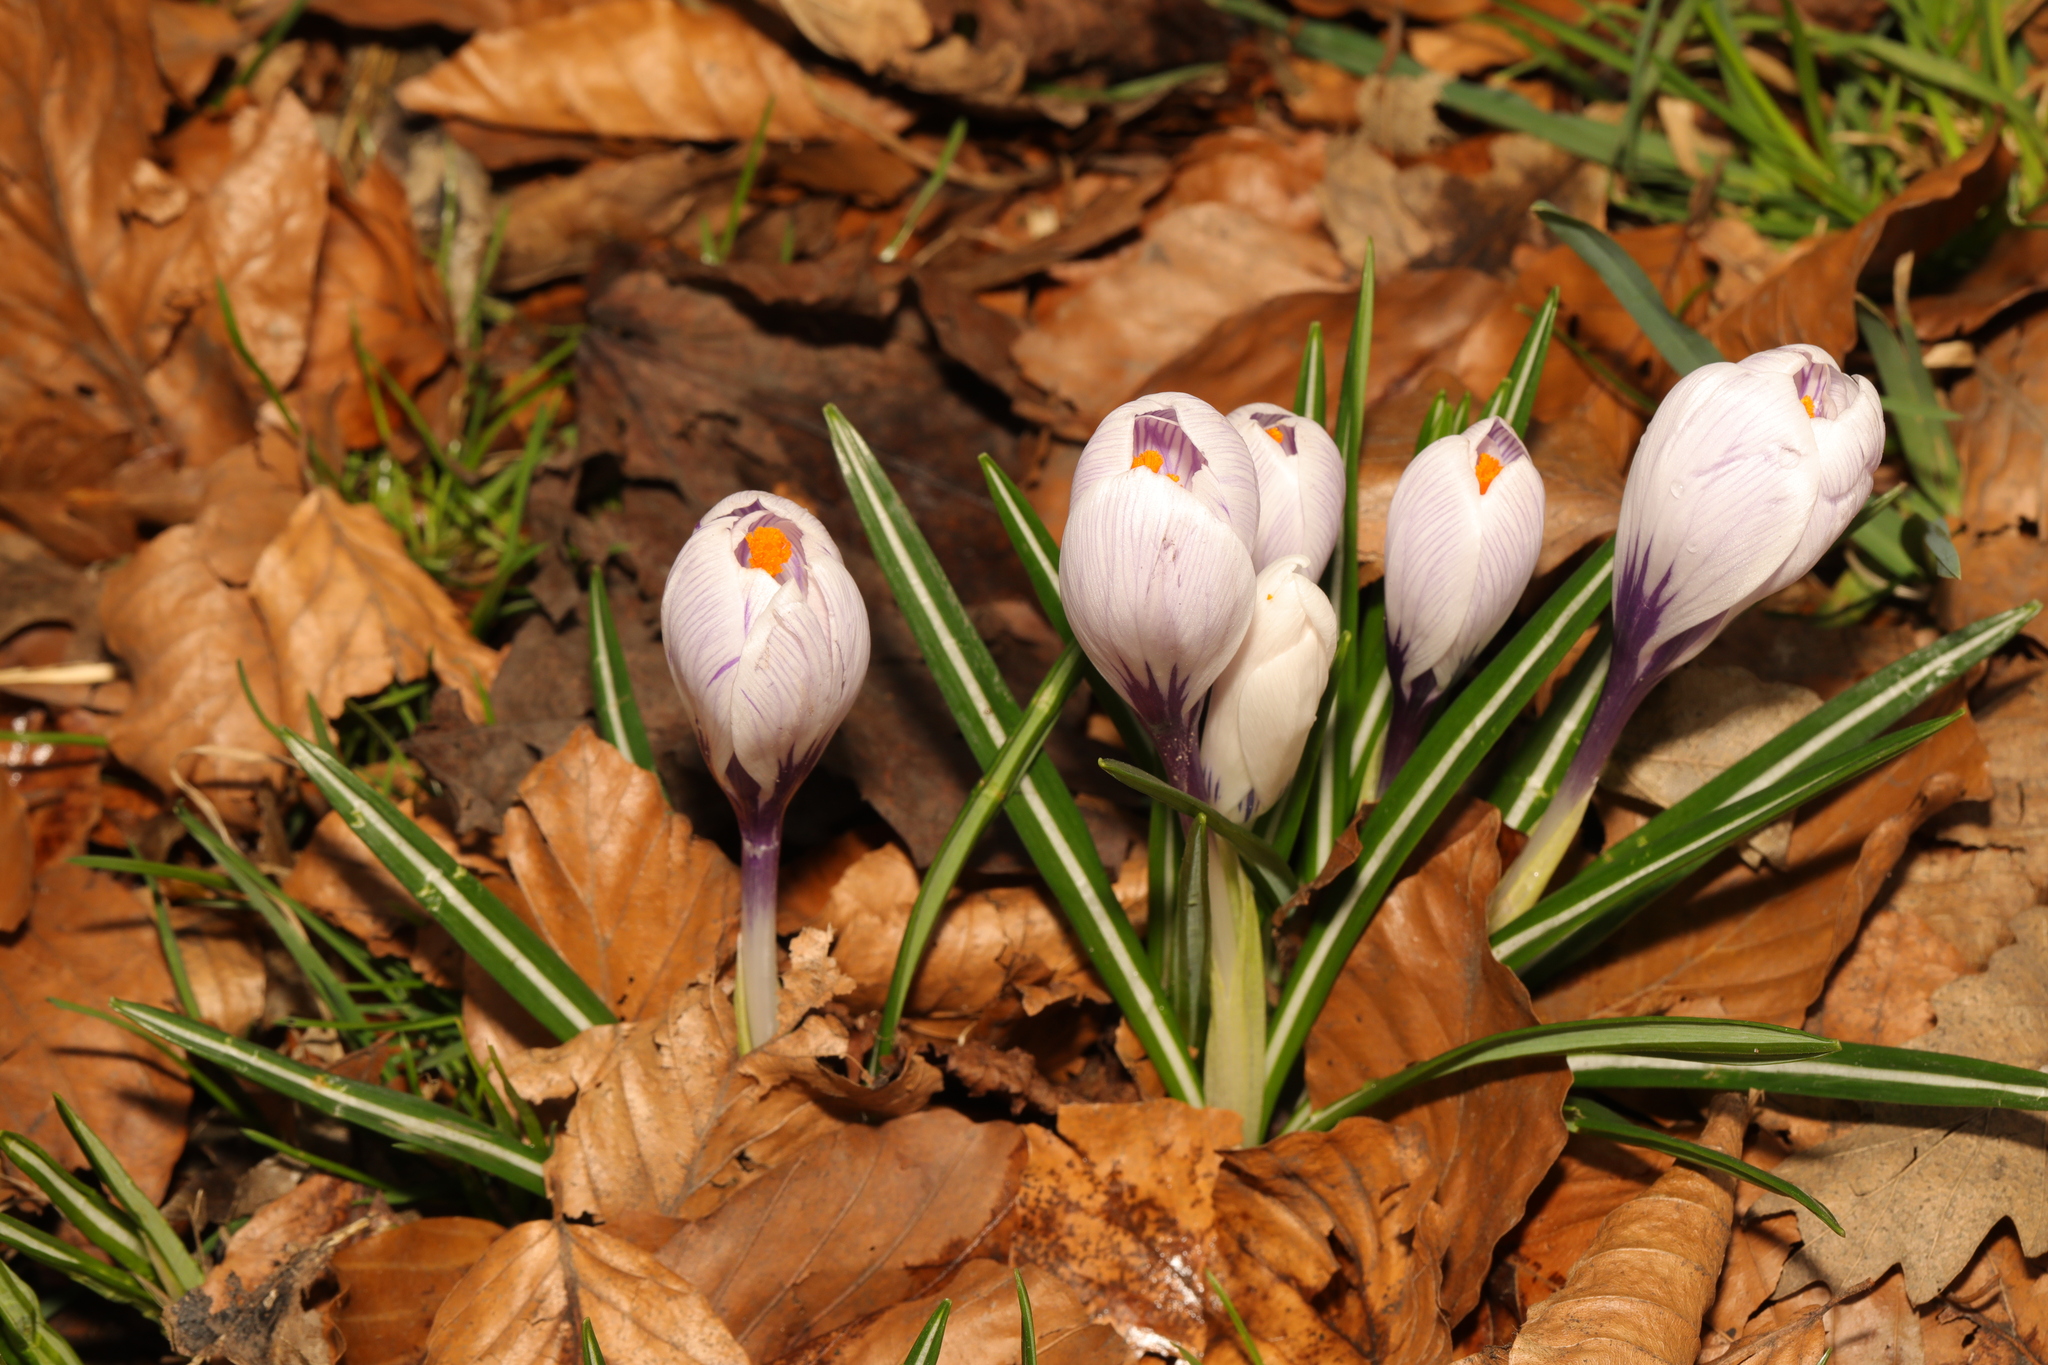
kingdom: Plantae
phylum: Tracheophyta
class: Liliopsida
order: Asparagales
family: Iridaceae
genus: Crocus
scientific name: Crocus neapolitanus
